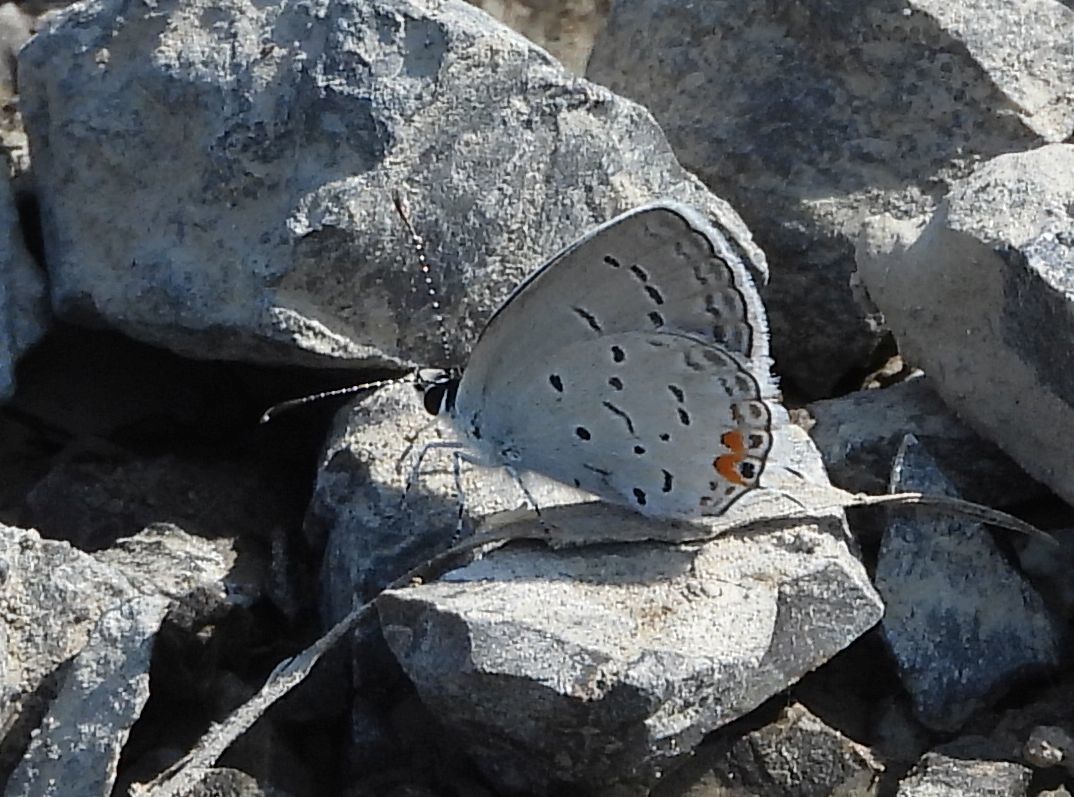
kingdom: Animalia
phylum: Arthropoda
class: Insecta
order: Lepidoptera
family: Lycaenidae
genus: Elkalyce
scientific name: Elkalyce comyntas
